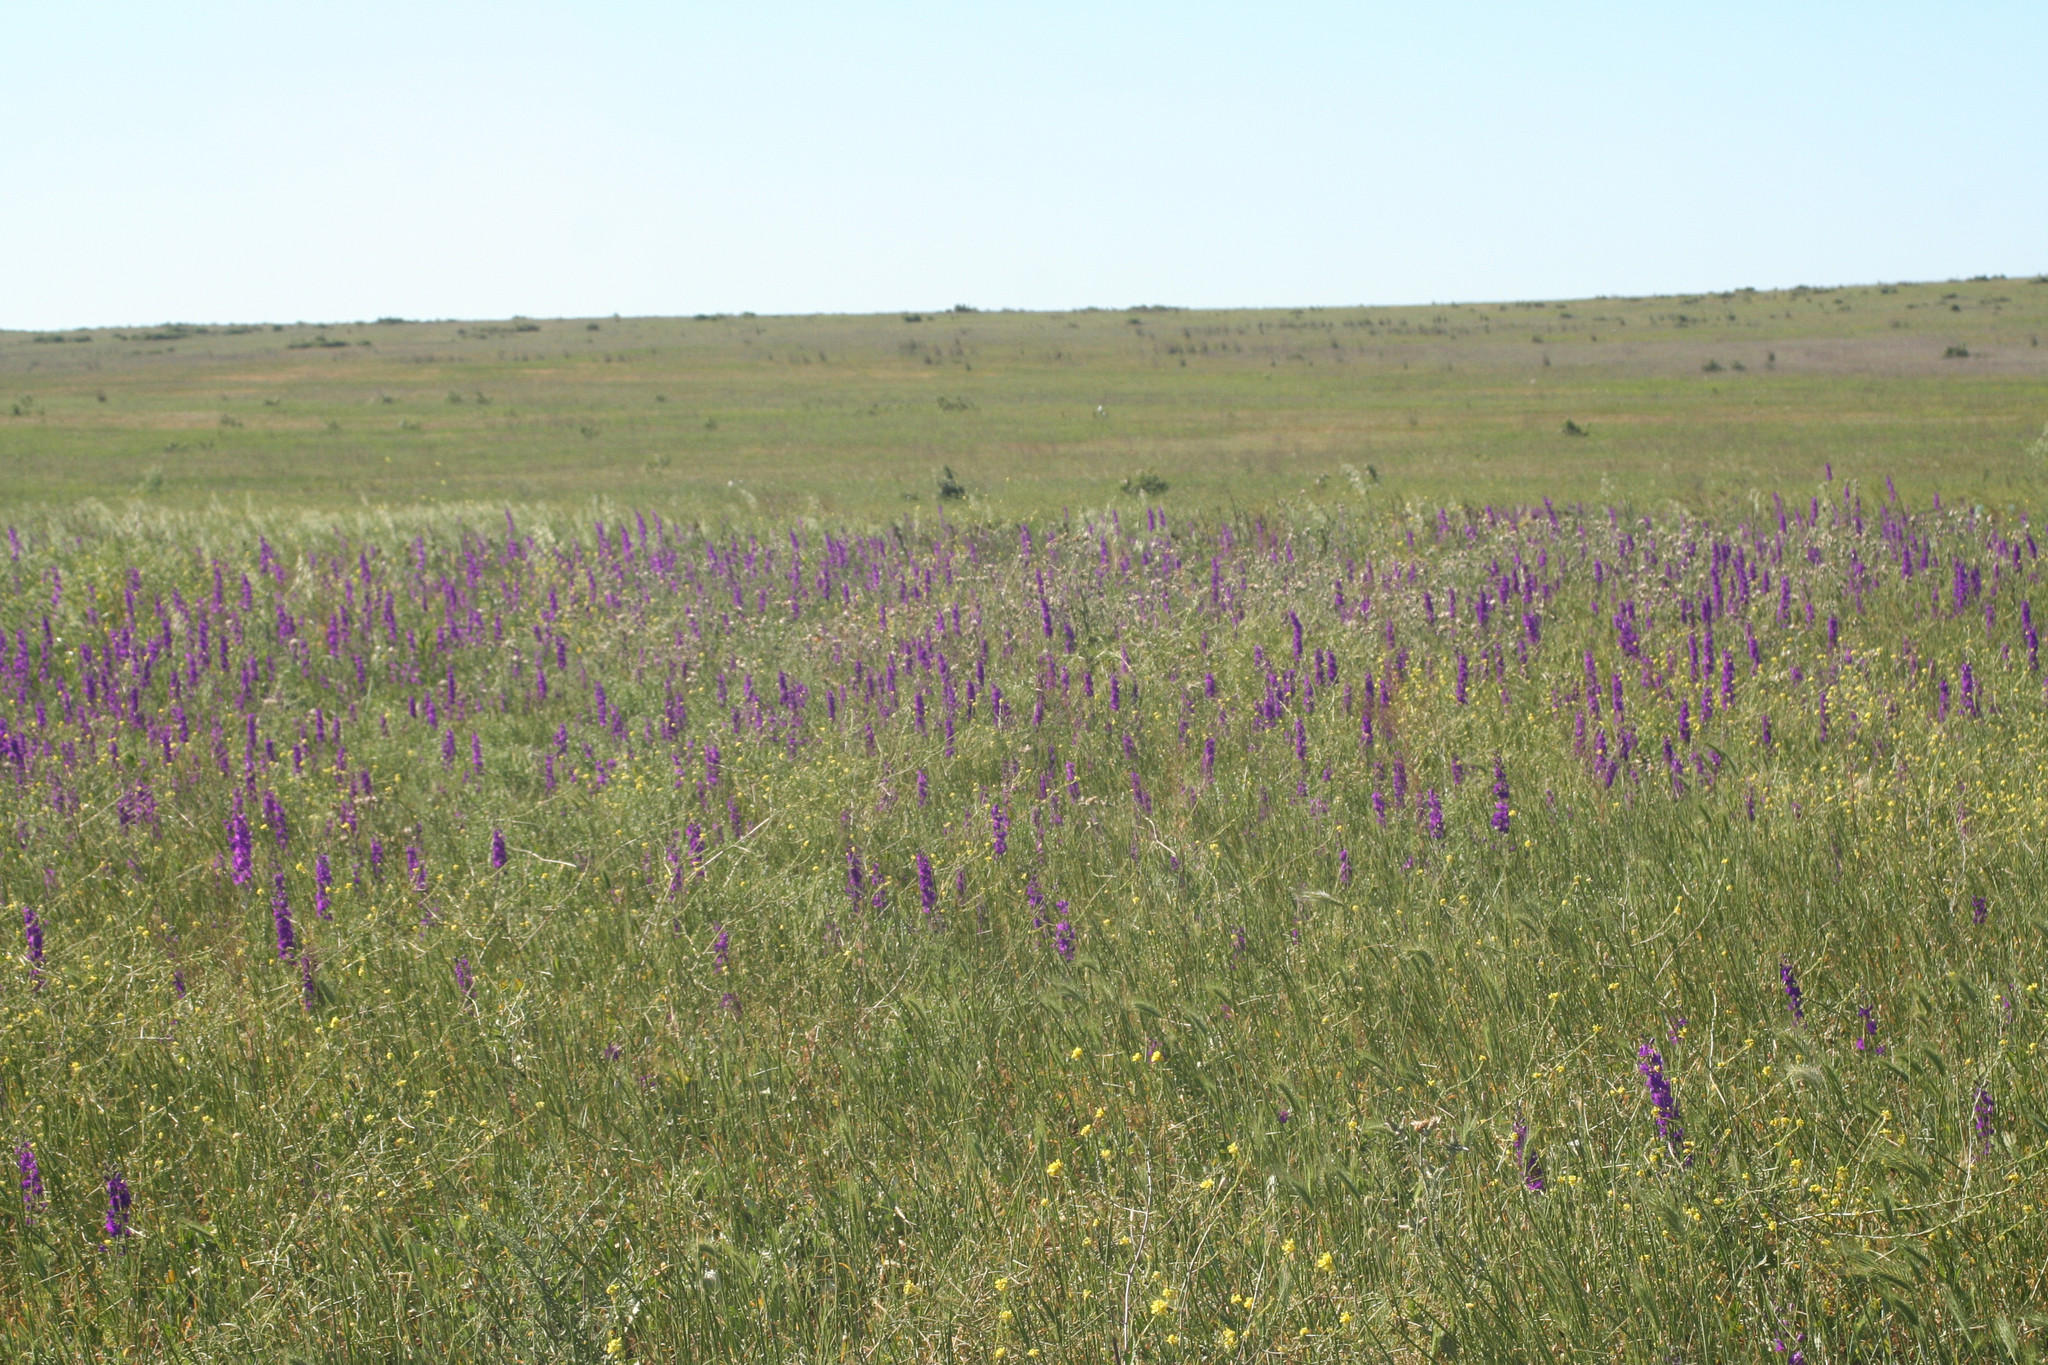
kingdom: Plantae
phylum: Tracheophyta
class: Magnoliopsida
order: Ranunculales
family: Ranunculaceae
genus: Delphinium
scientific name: Delphinium ajacis
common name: Doubtful knight's-spur
